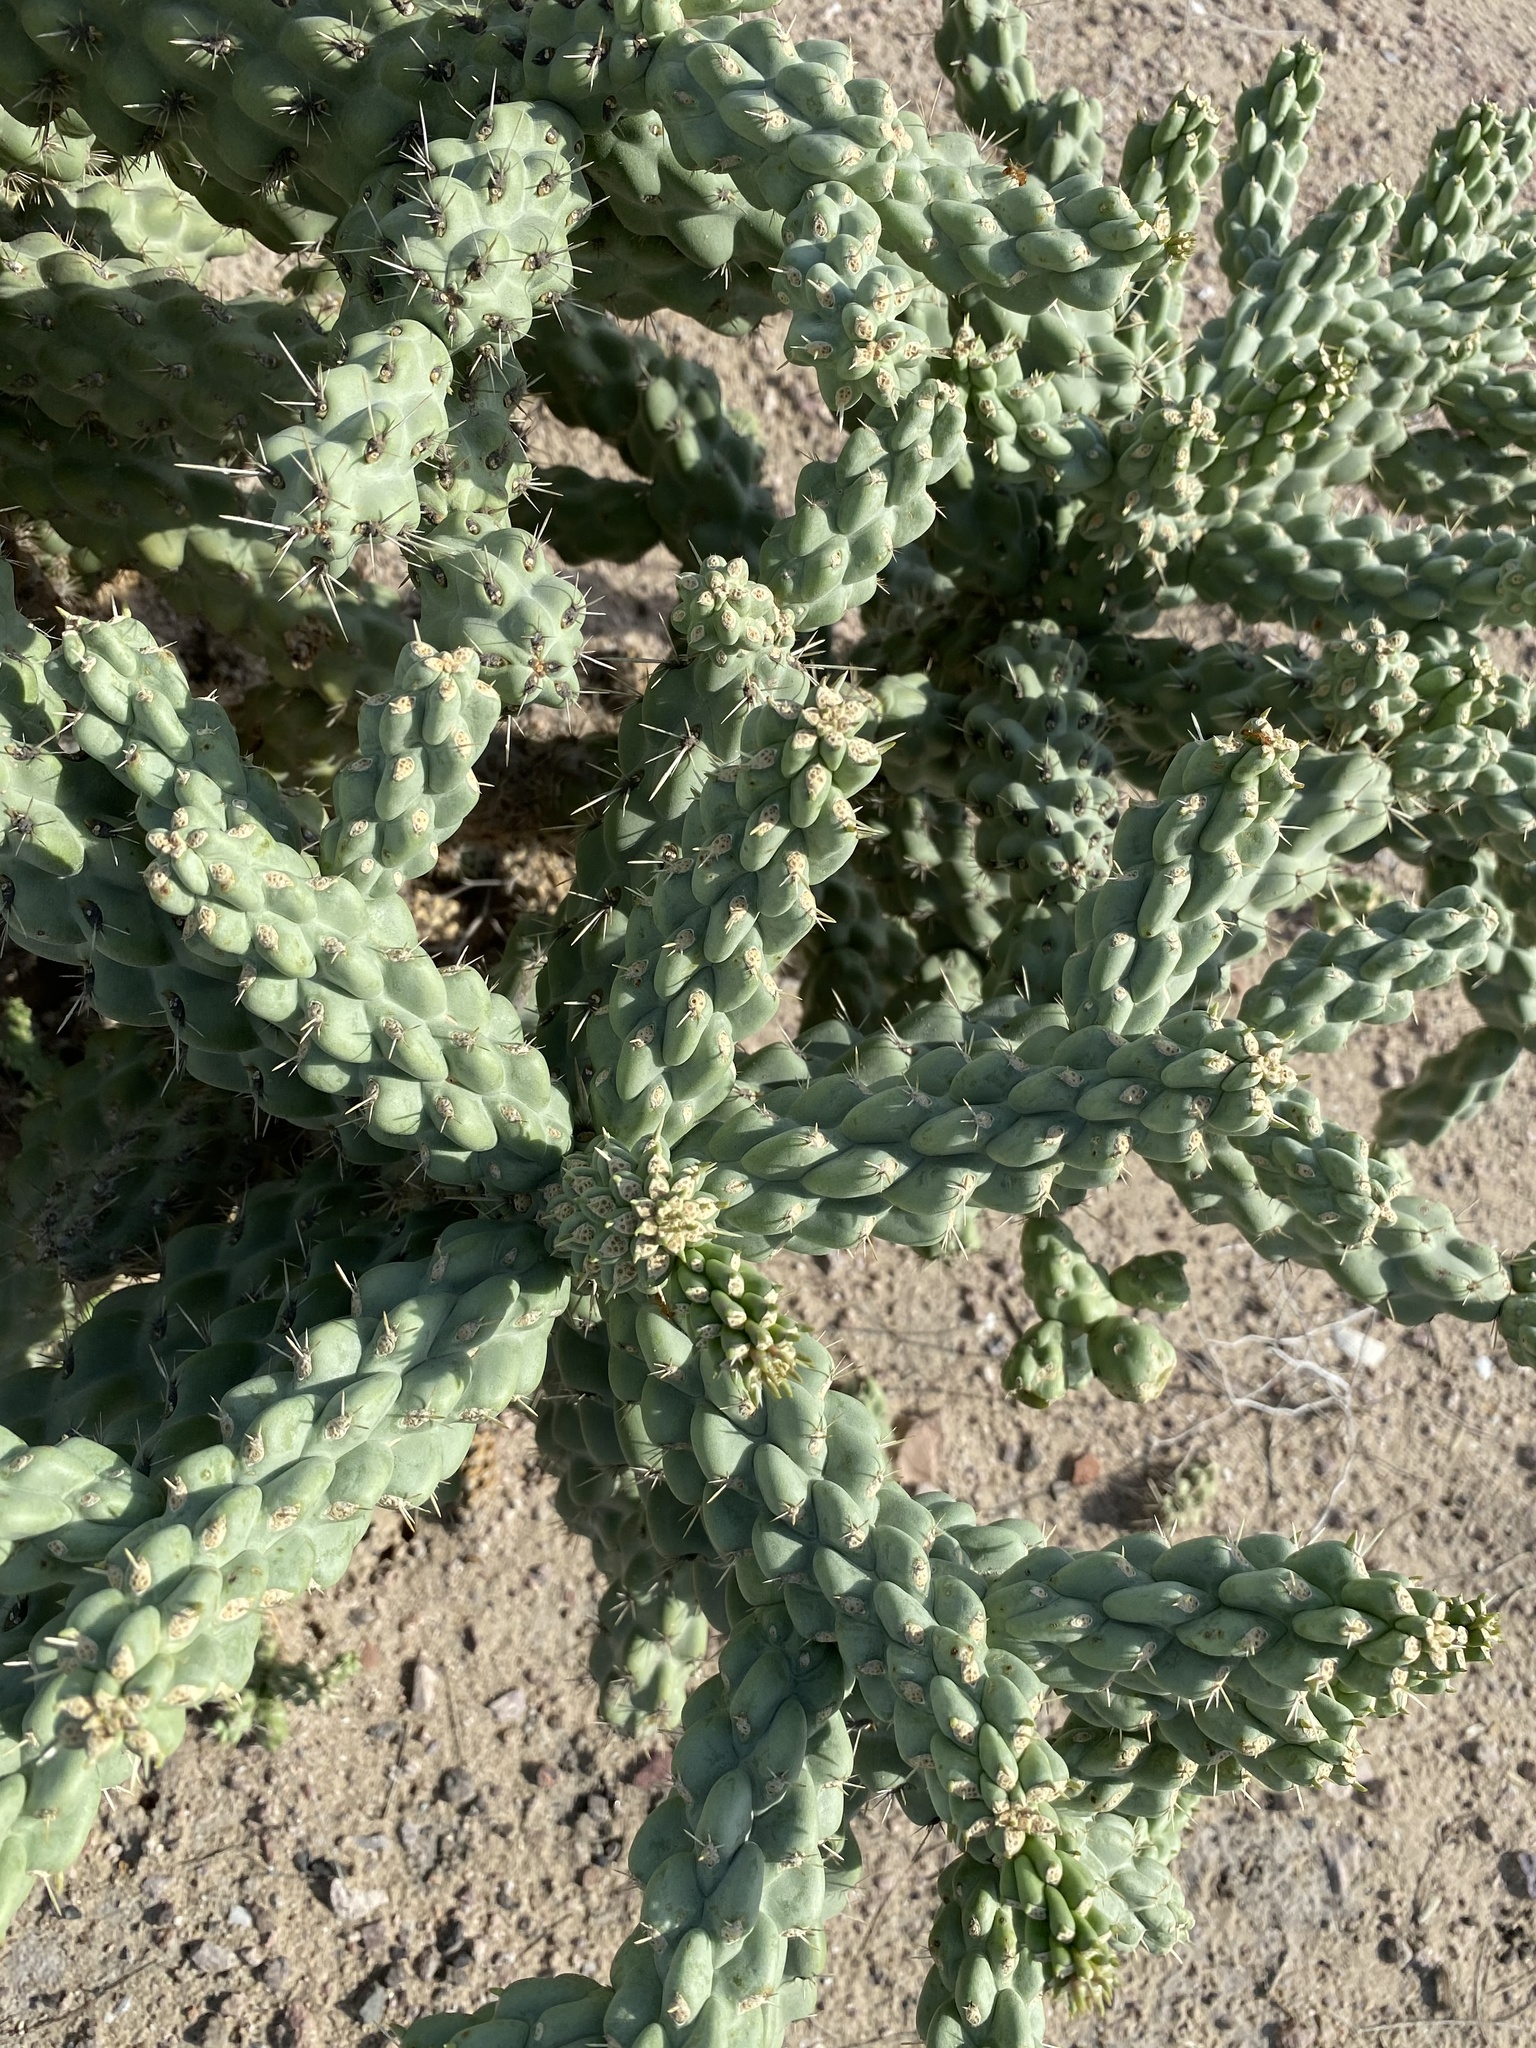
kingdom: Plantae
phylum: Tracheophyta
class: Magnoliopsida
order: Caryophyllales
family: Cactaceae
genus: Cylindropuntia
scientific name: Cylindropuntia fulgida
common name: Jumping cholla
